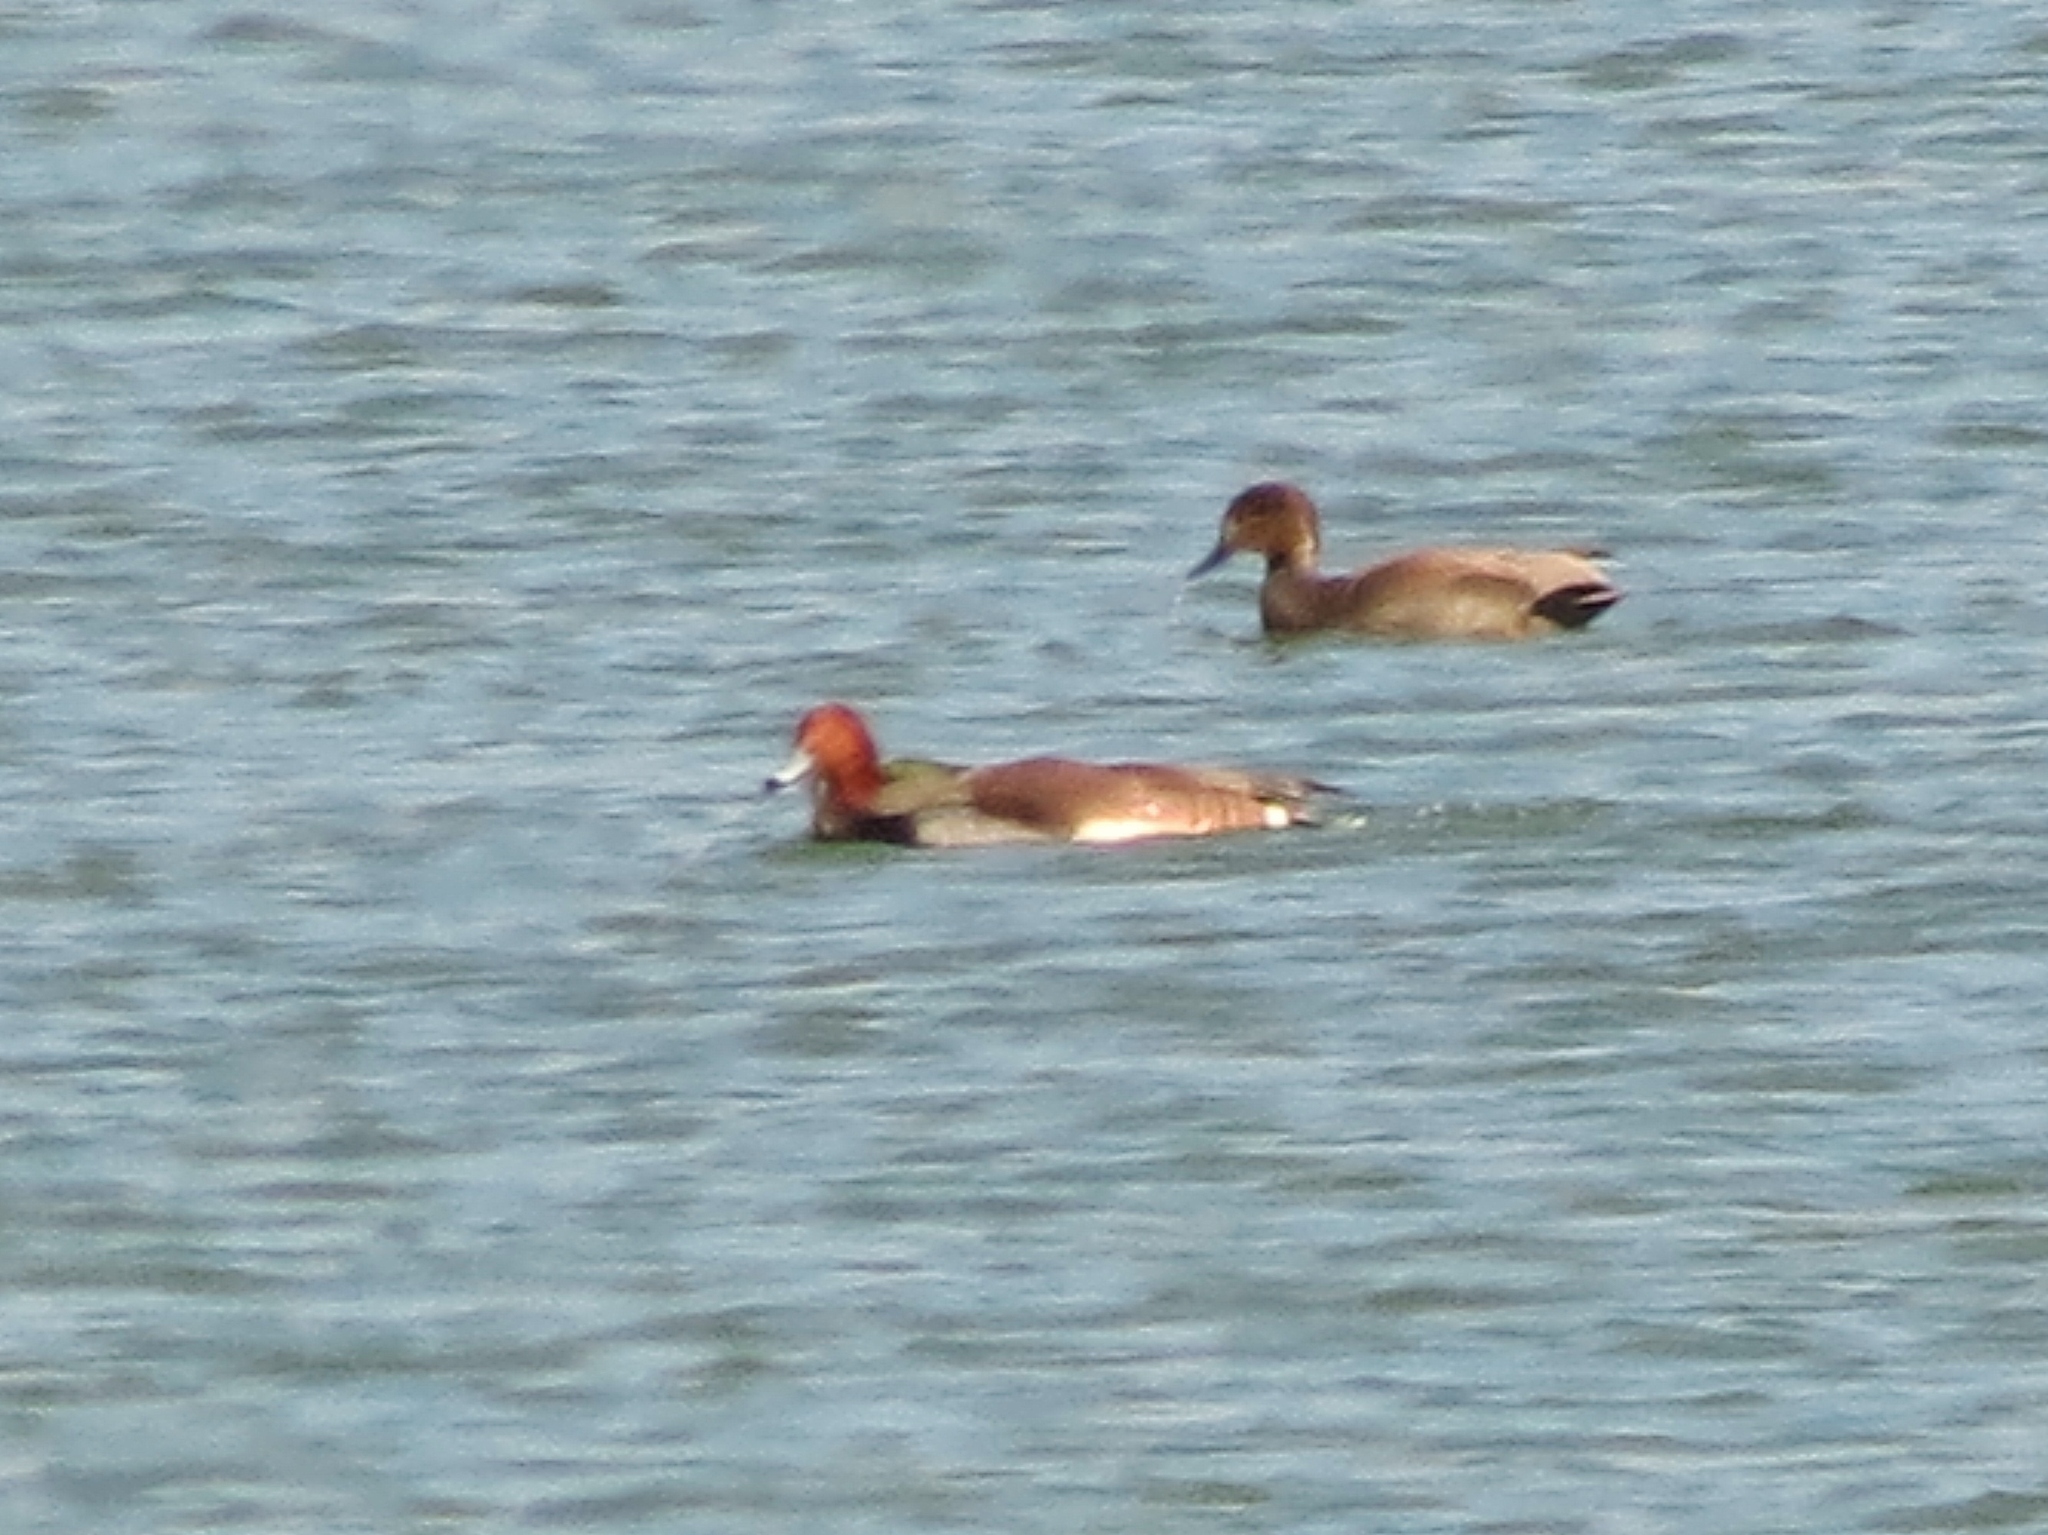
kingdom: Animalia
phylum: Chordata
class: Aves
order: Anseriformes
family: Anatidae
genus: Aythya
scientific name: Aythya americana
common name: Redhead
